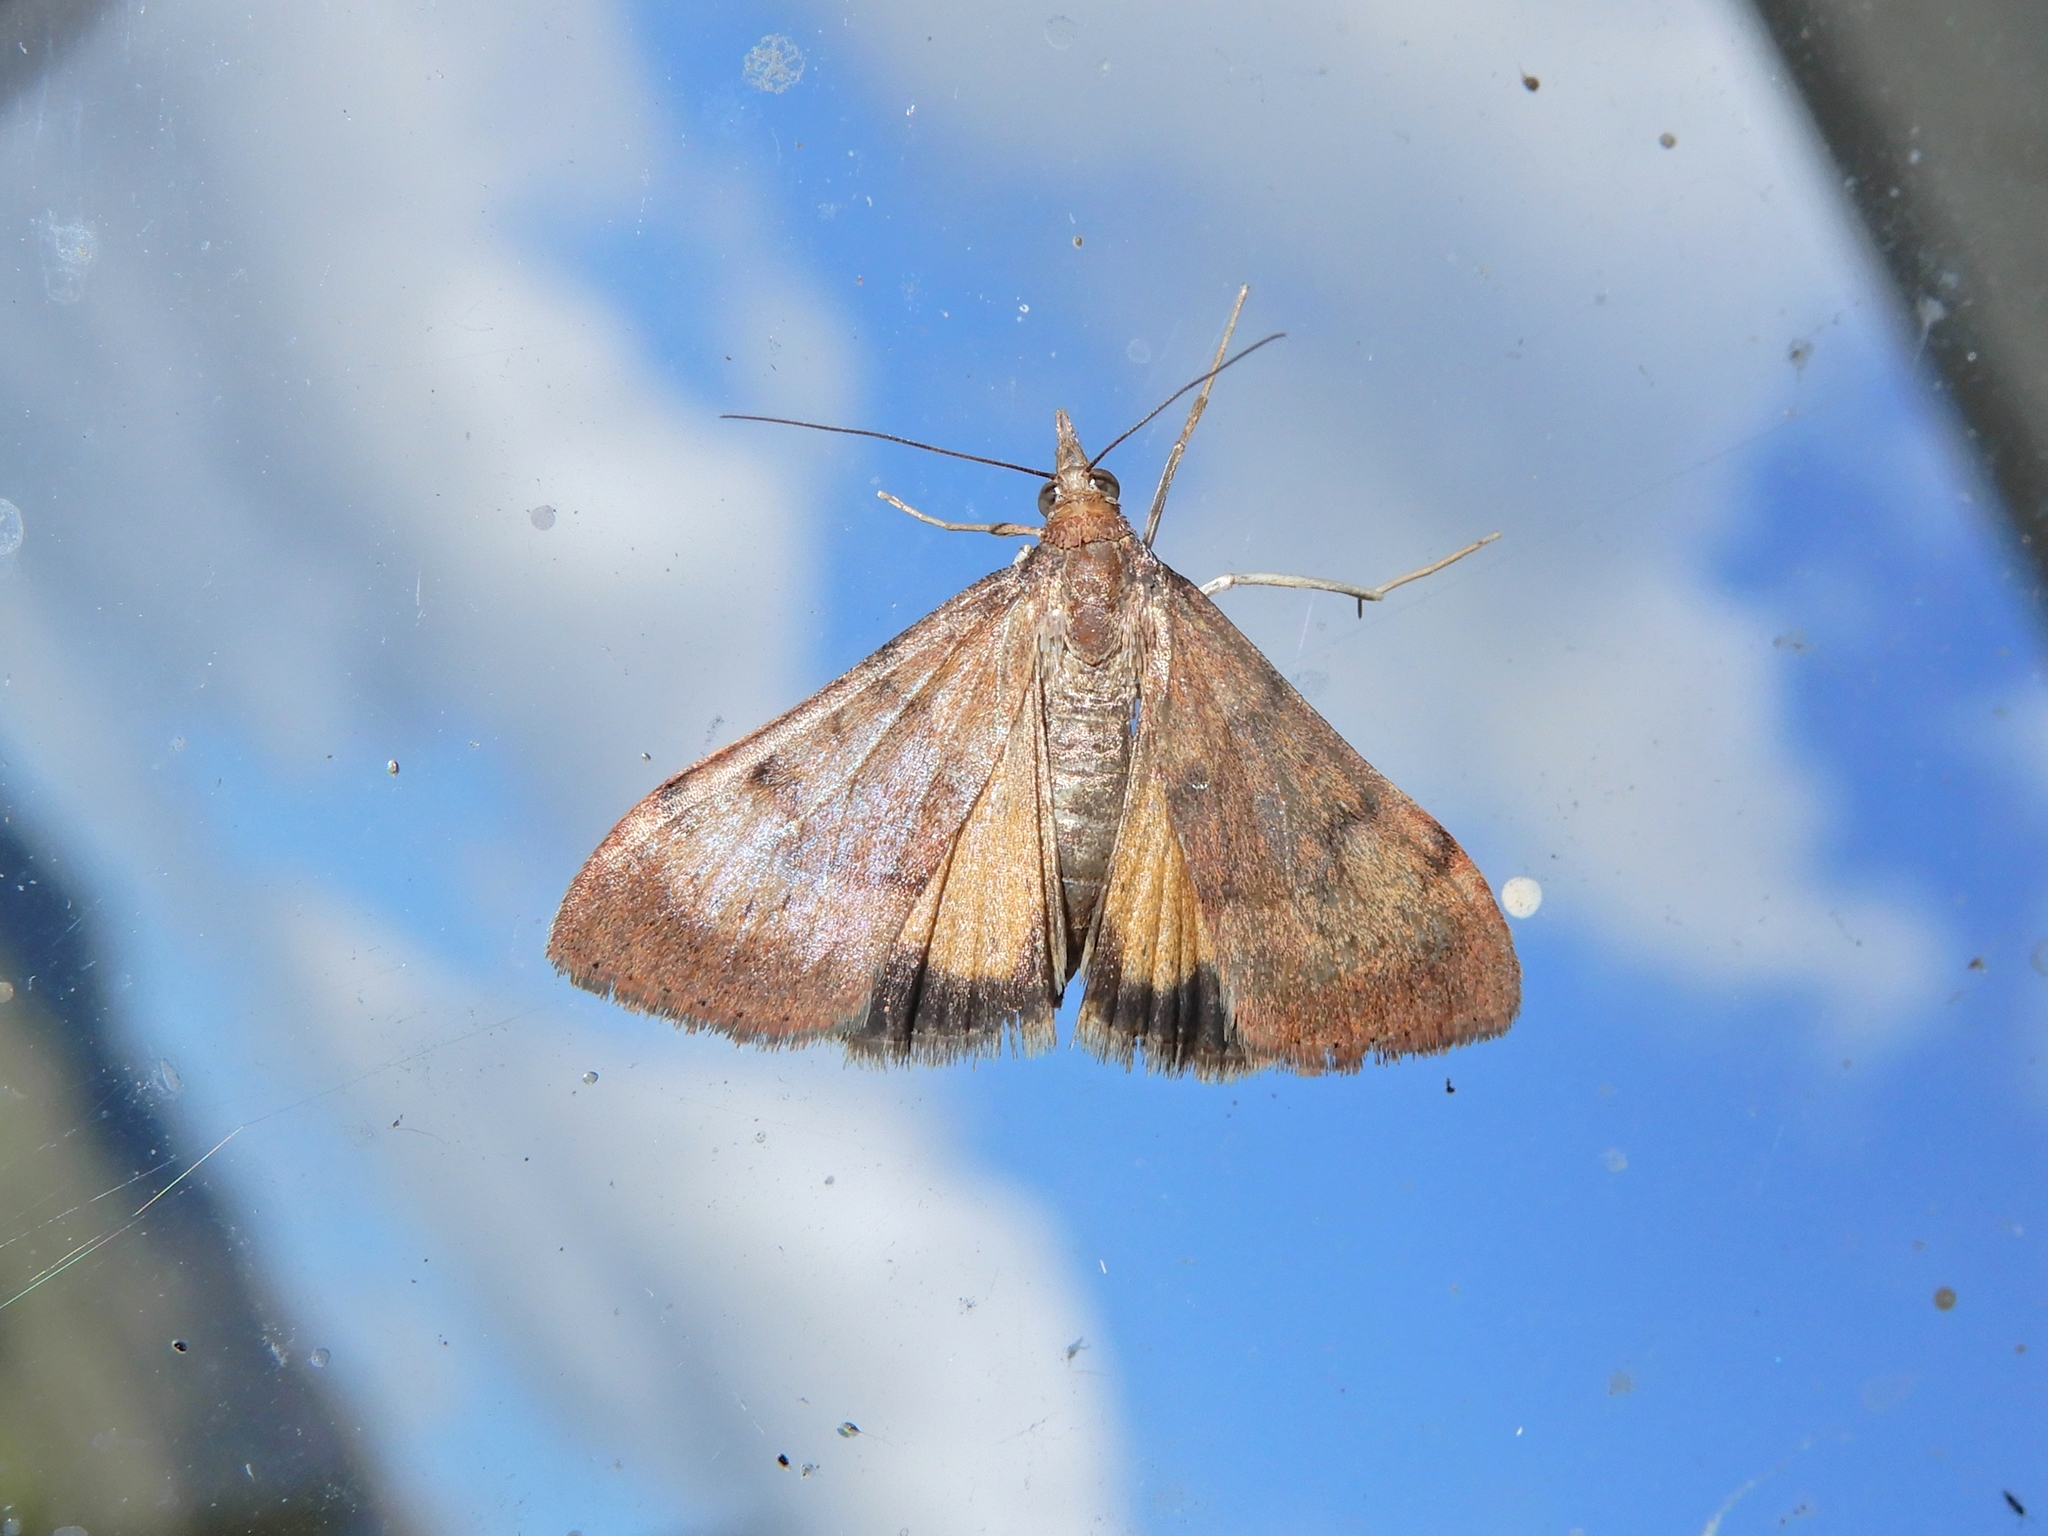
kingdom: Animalia
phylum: Arthropoda
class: Insecta
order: Lepidoptera
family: Crambidae
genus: Uresiphita
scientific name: Uresiphita
